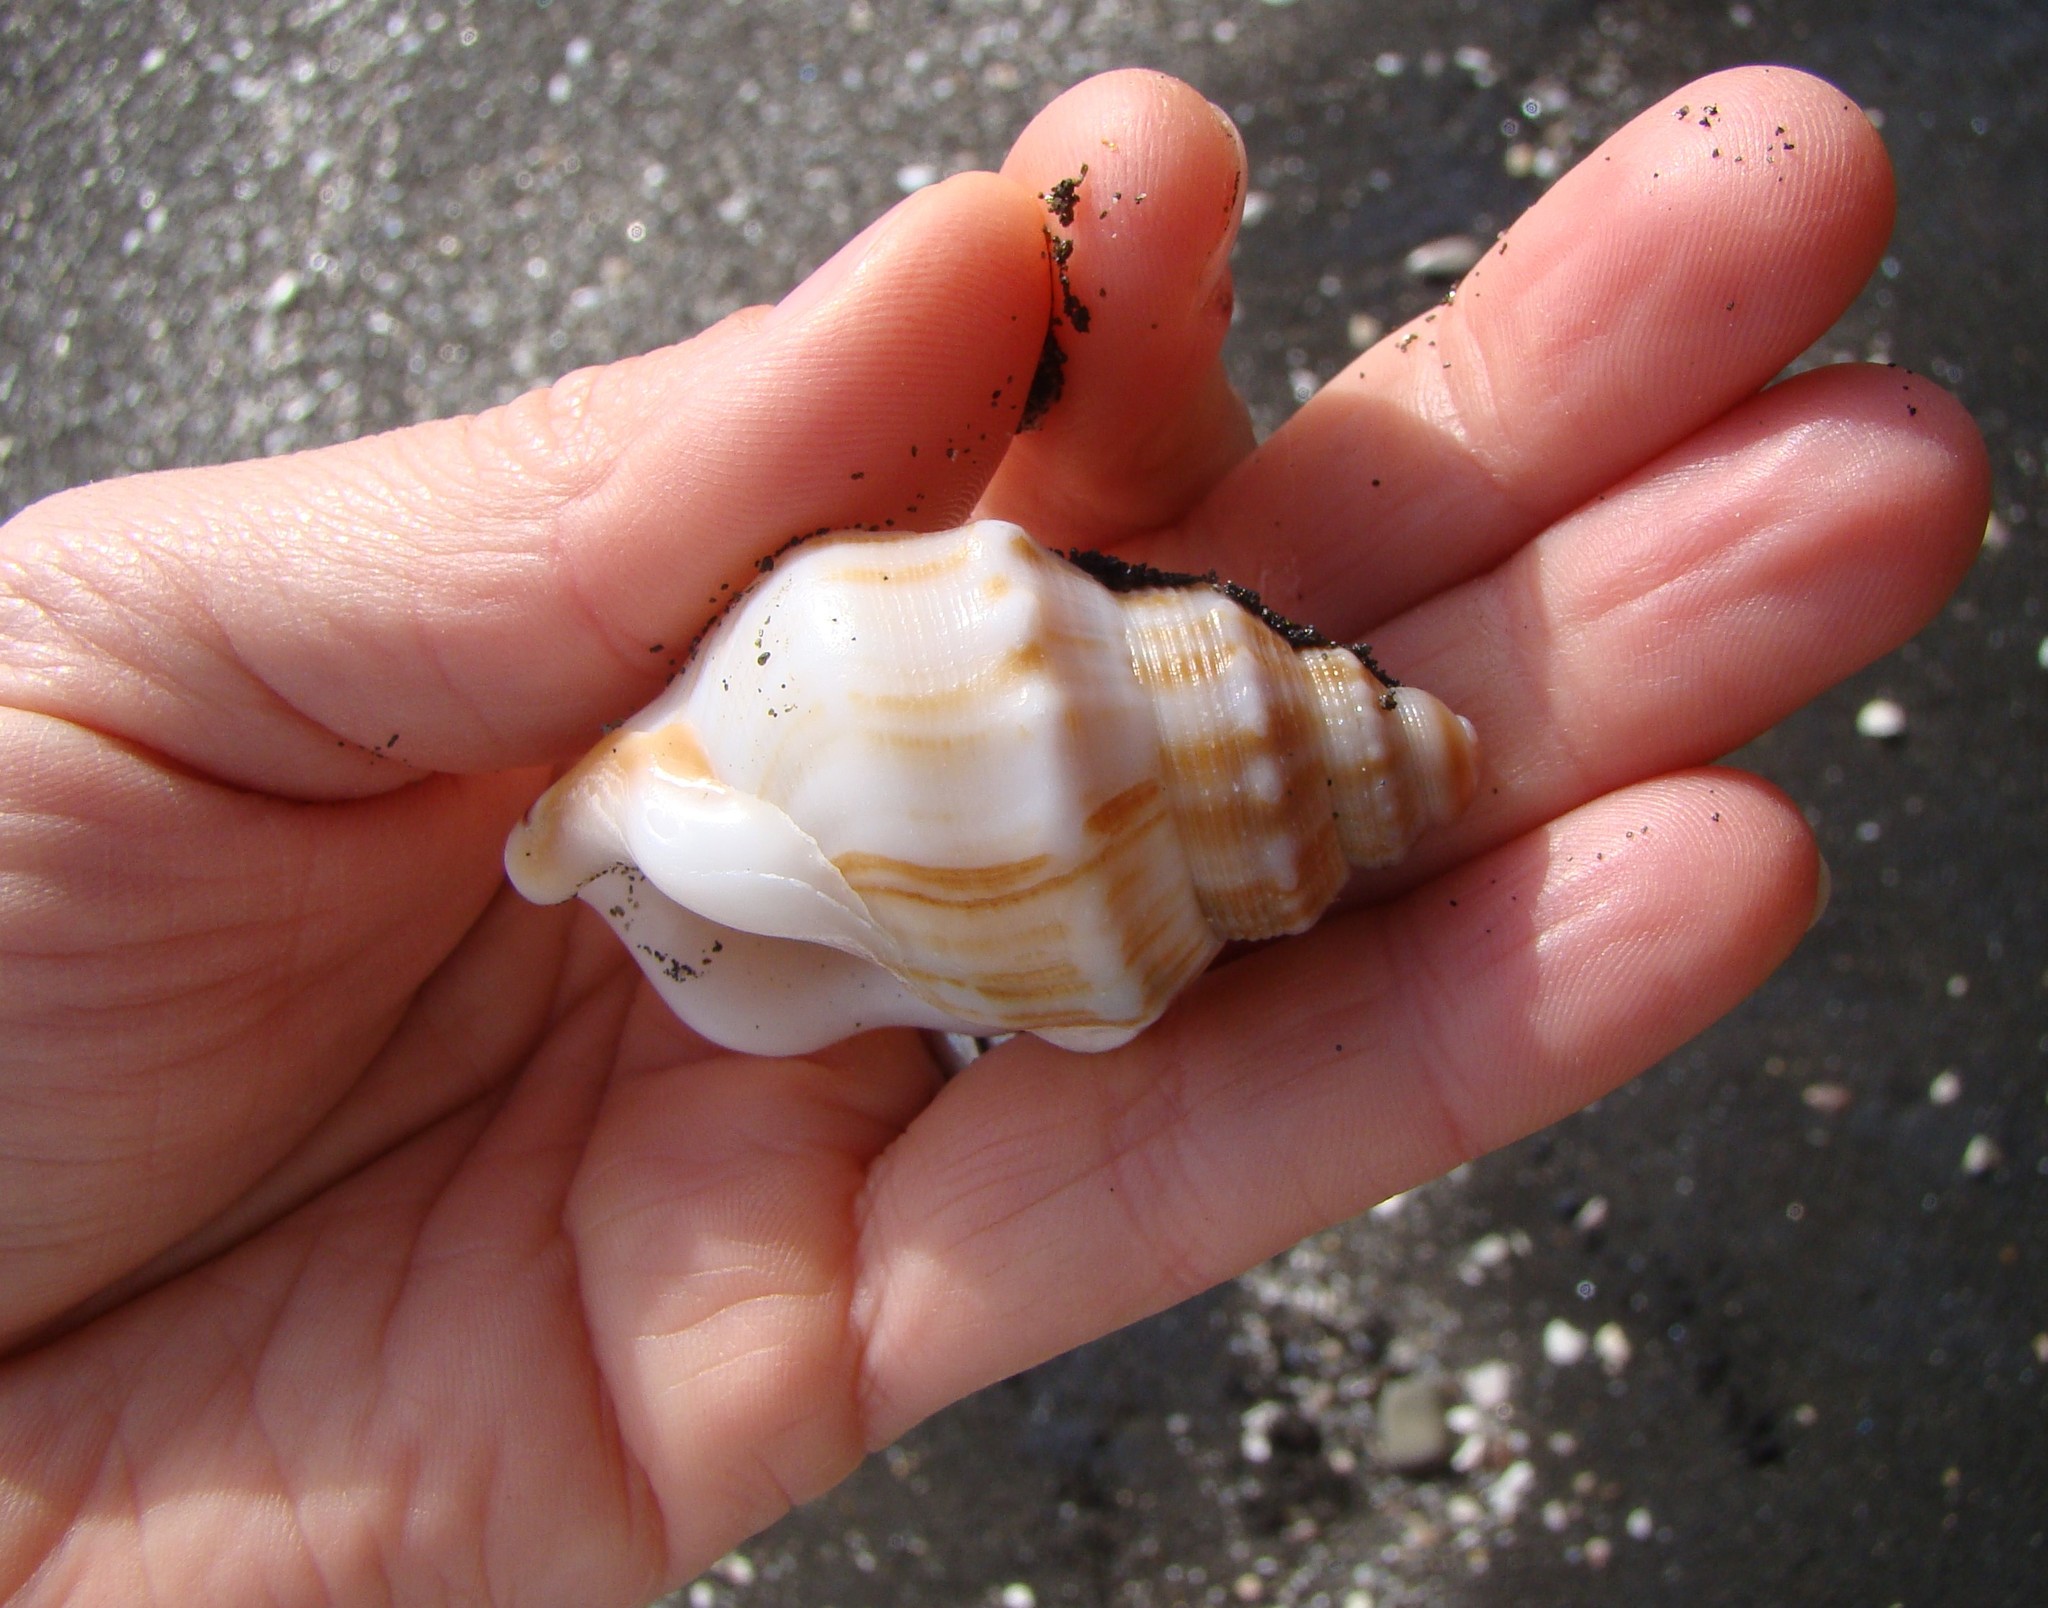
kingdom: Animalia
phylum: Mollusca
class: Gastropoda
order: Littorinimorpha
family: Struthiolariidae
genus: Struthiolaria
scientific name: Struthiolaria papulosa
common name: Large ostrich foot
